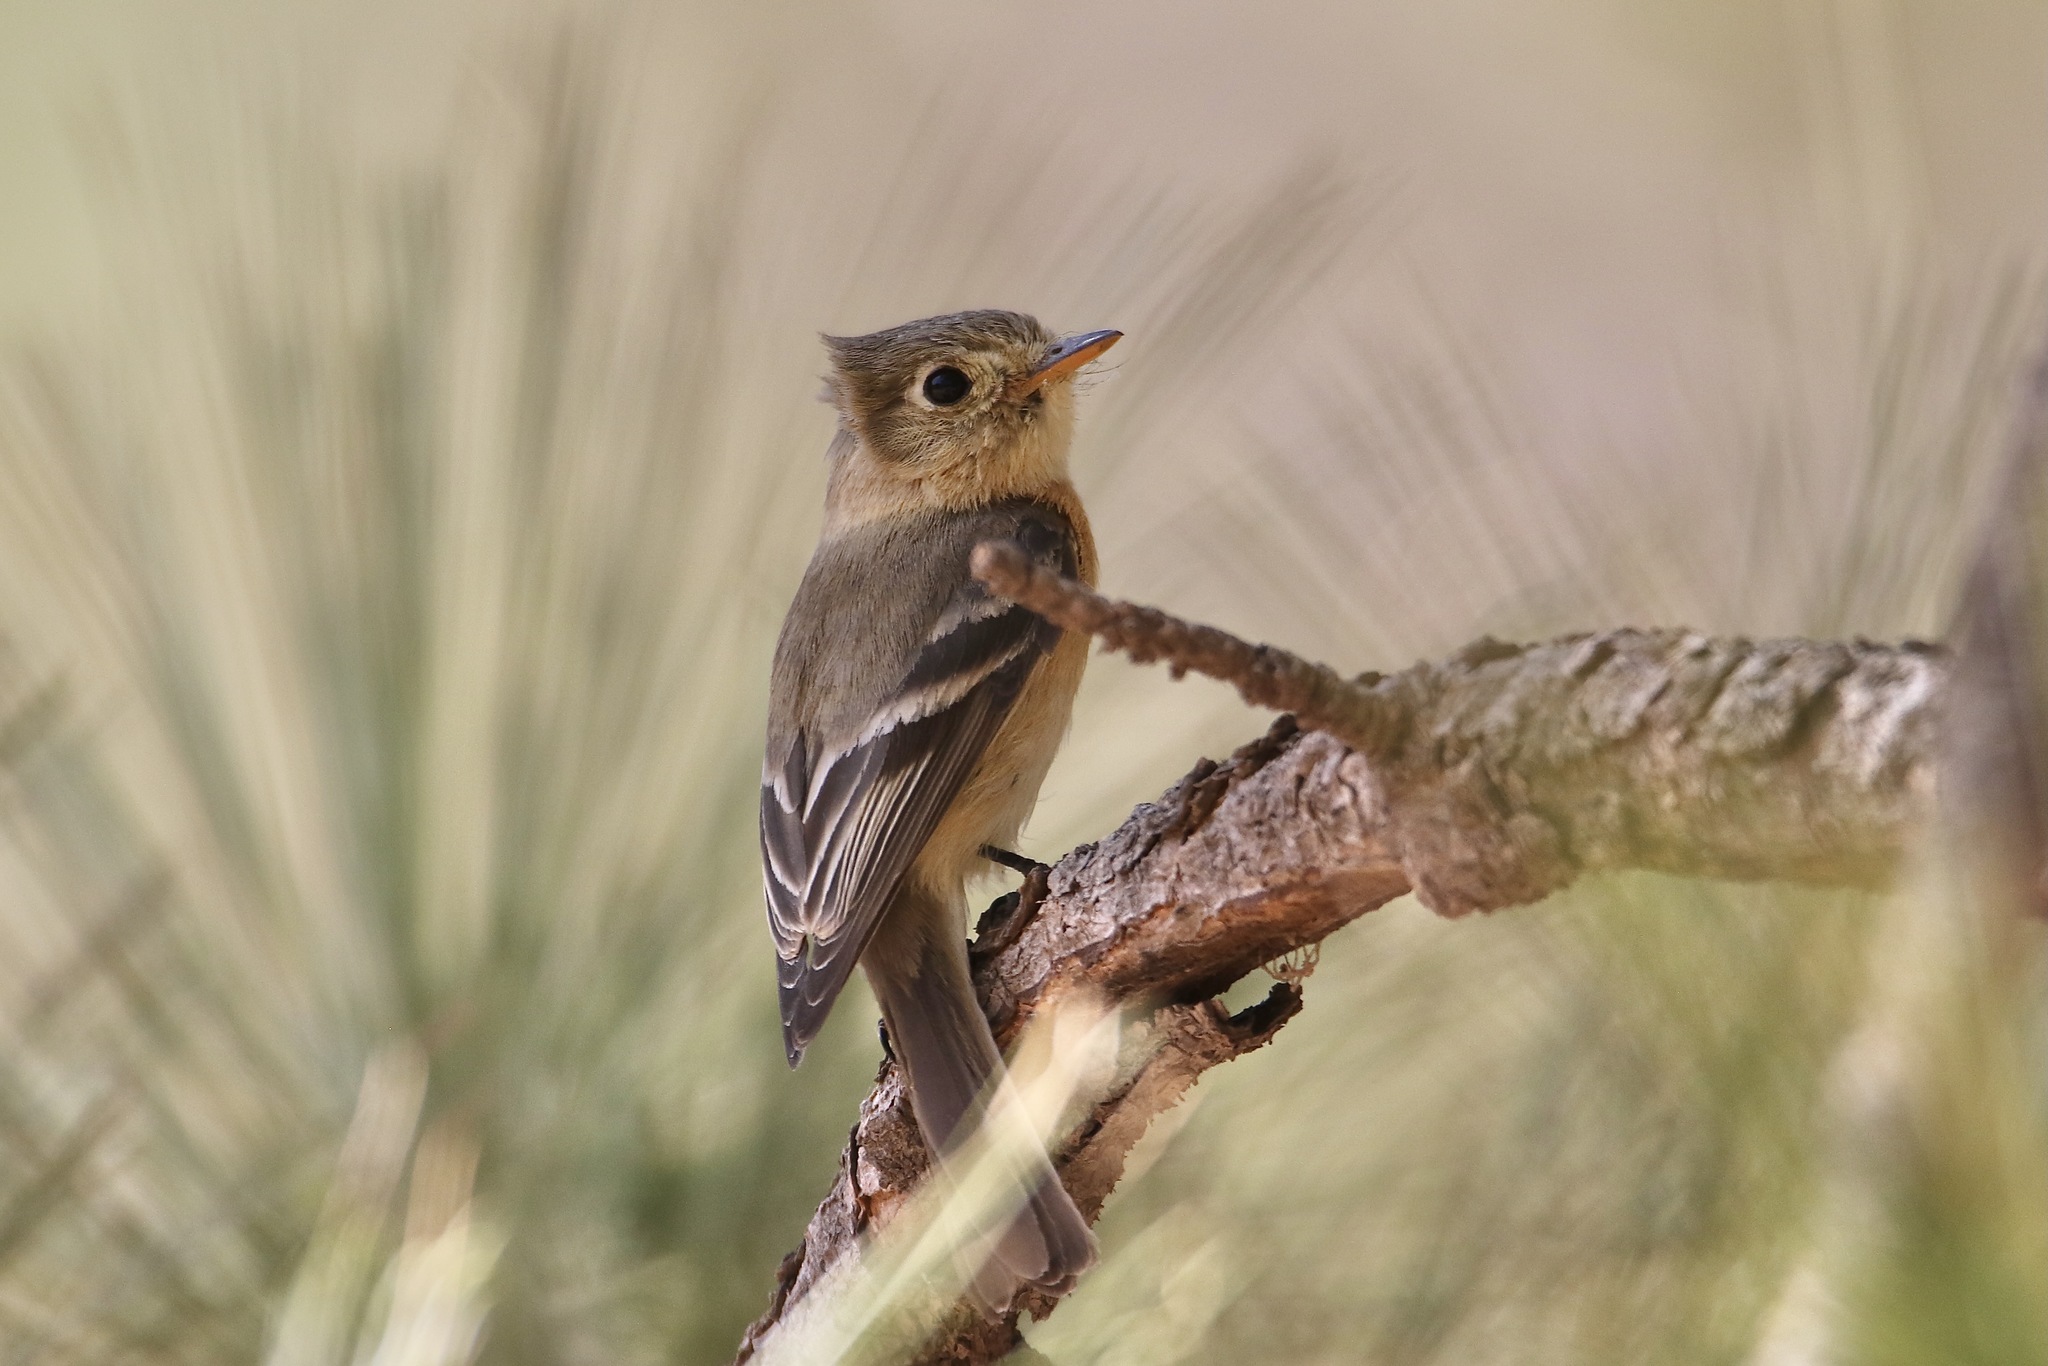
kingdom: Animalia
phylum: Chordata
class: Aves
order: Passeriformes
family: Tyrannidae
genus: Empidonax
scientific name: Empidonax fulvifrons
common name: Buff-breasted flycatcher
